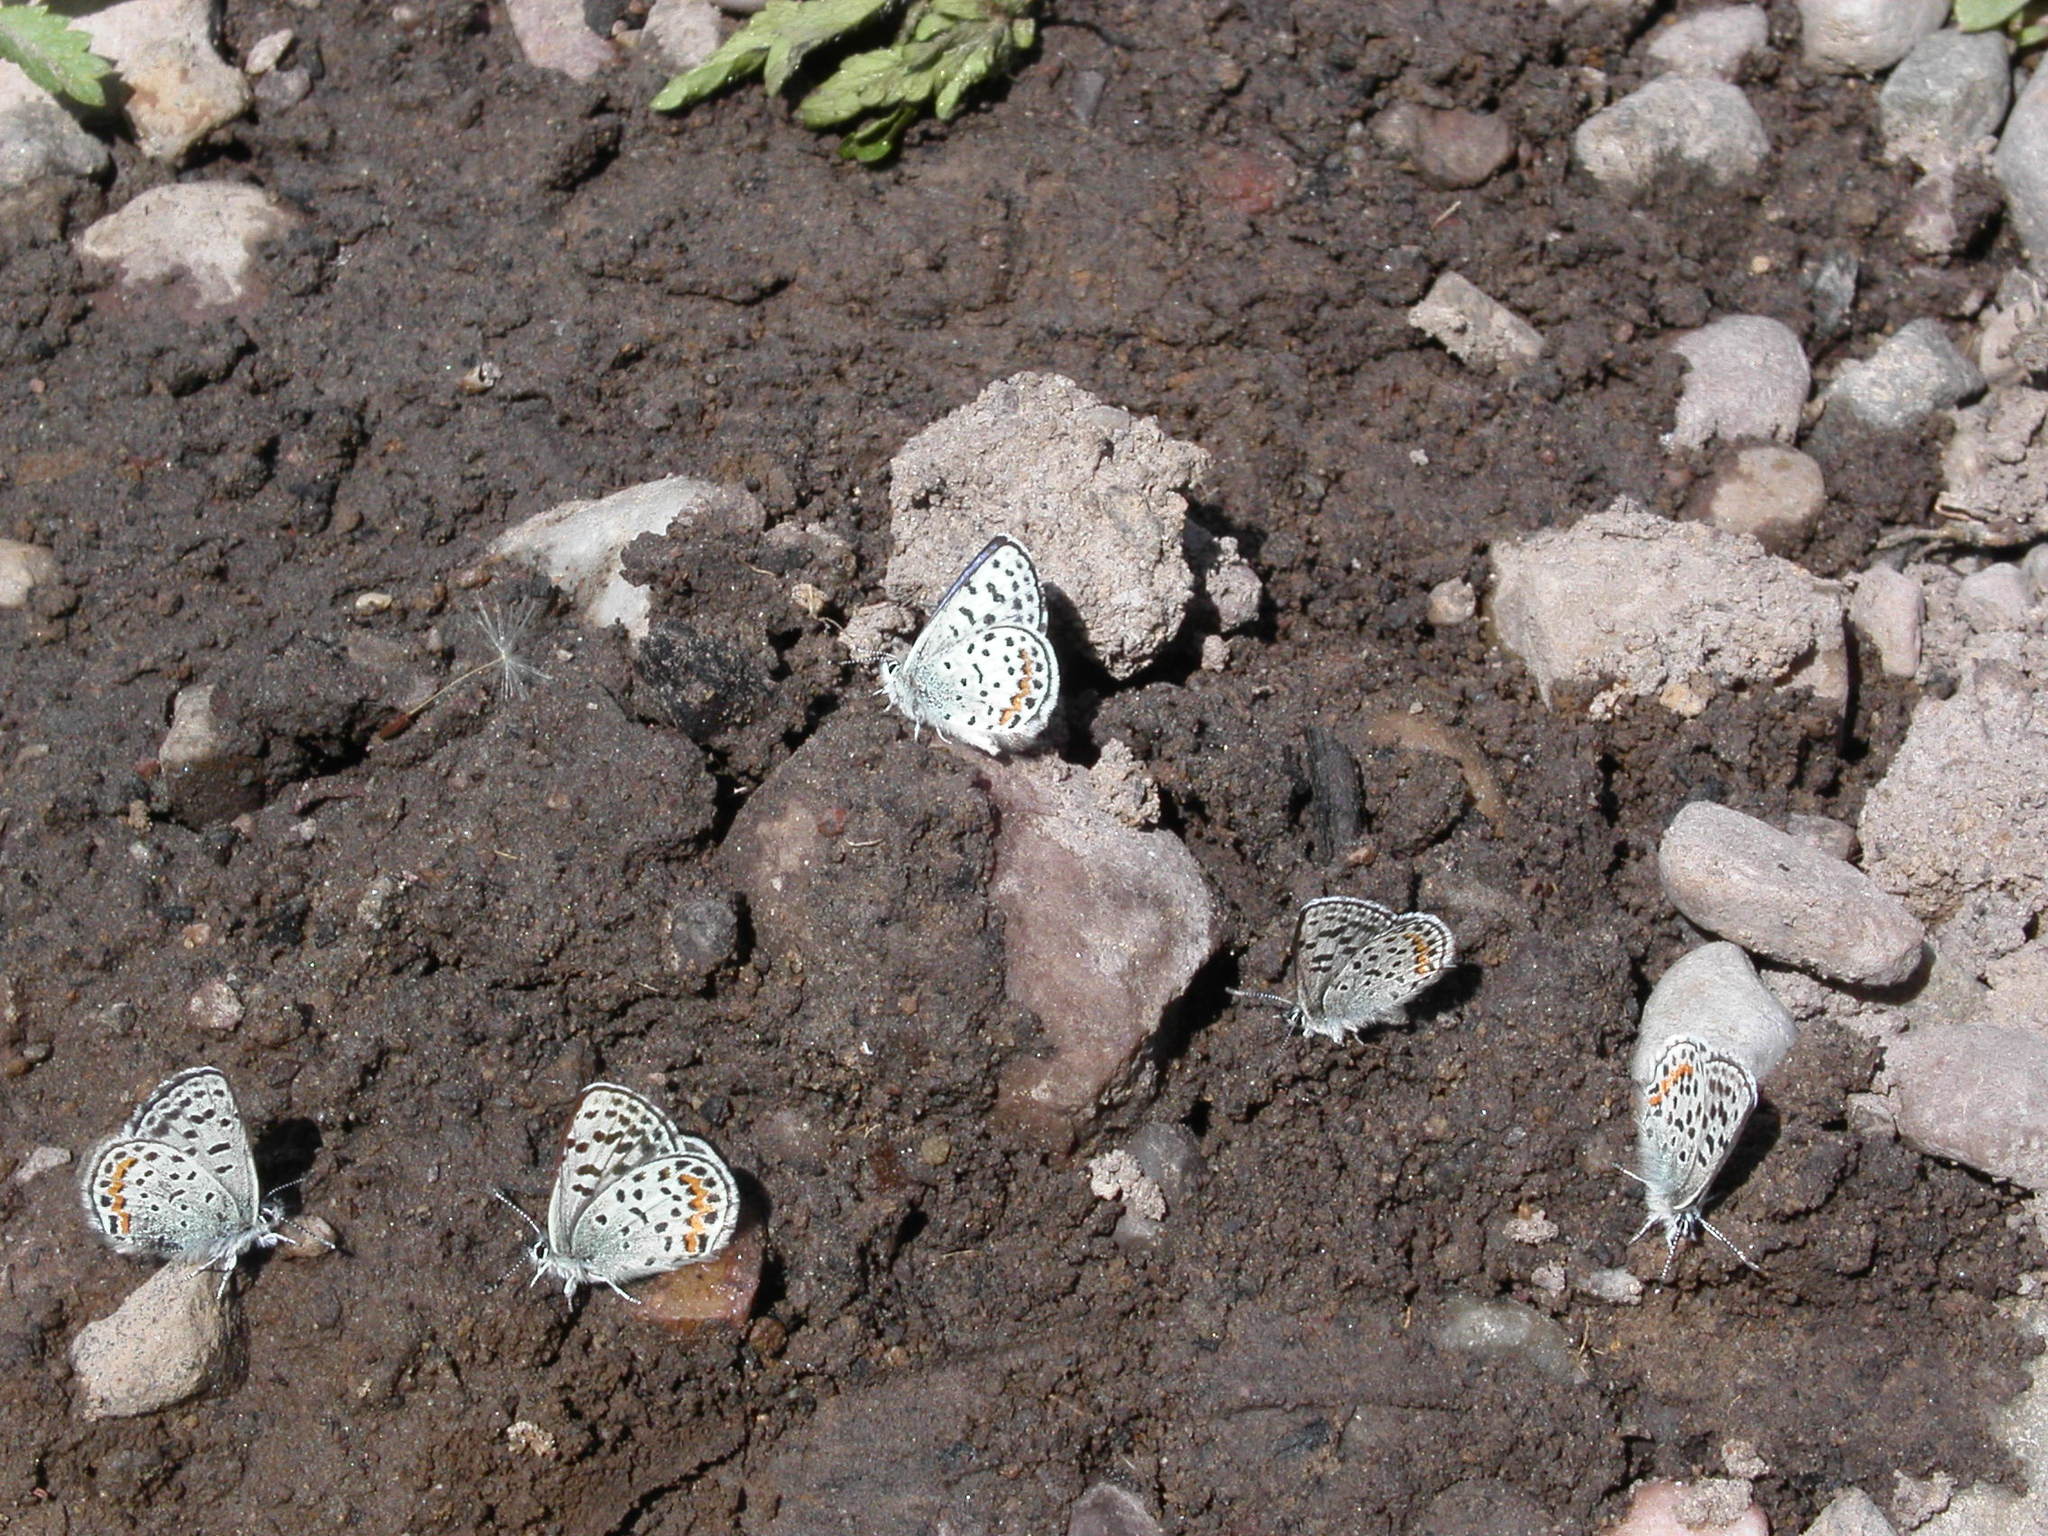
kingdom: Animalia
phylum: Arthropoda
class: Insecta
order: Lepidoptera
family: Lycaenidae
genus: Euphilotes
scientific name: Euphilotes enoptes
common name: Dotted blue
